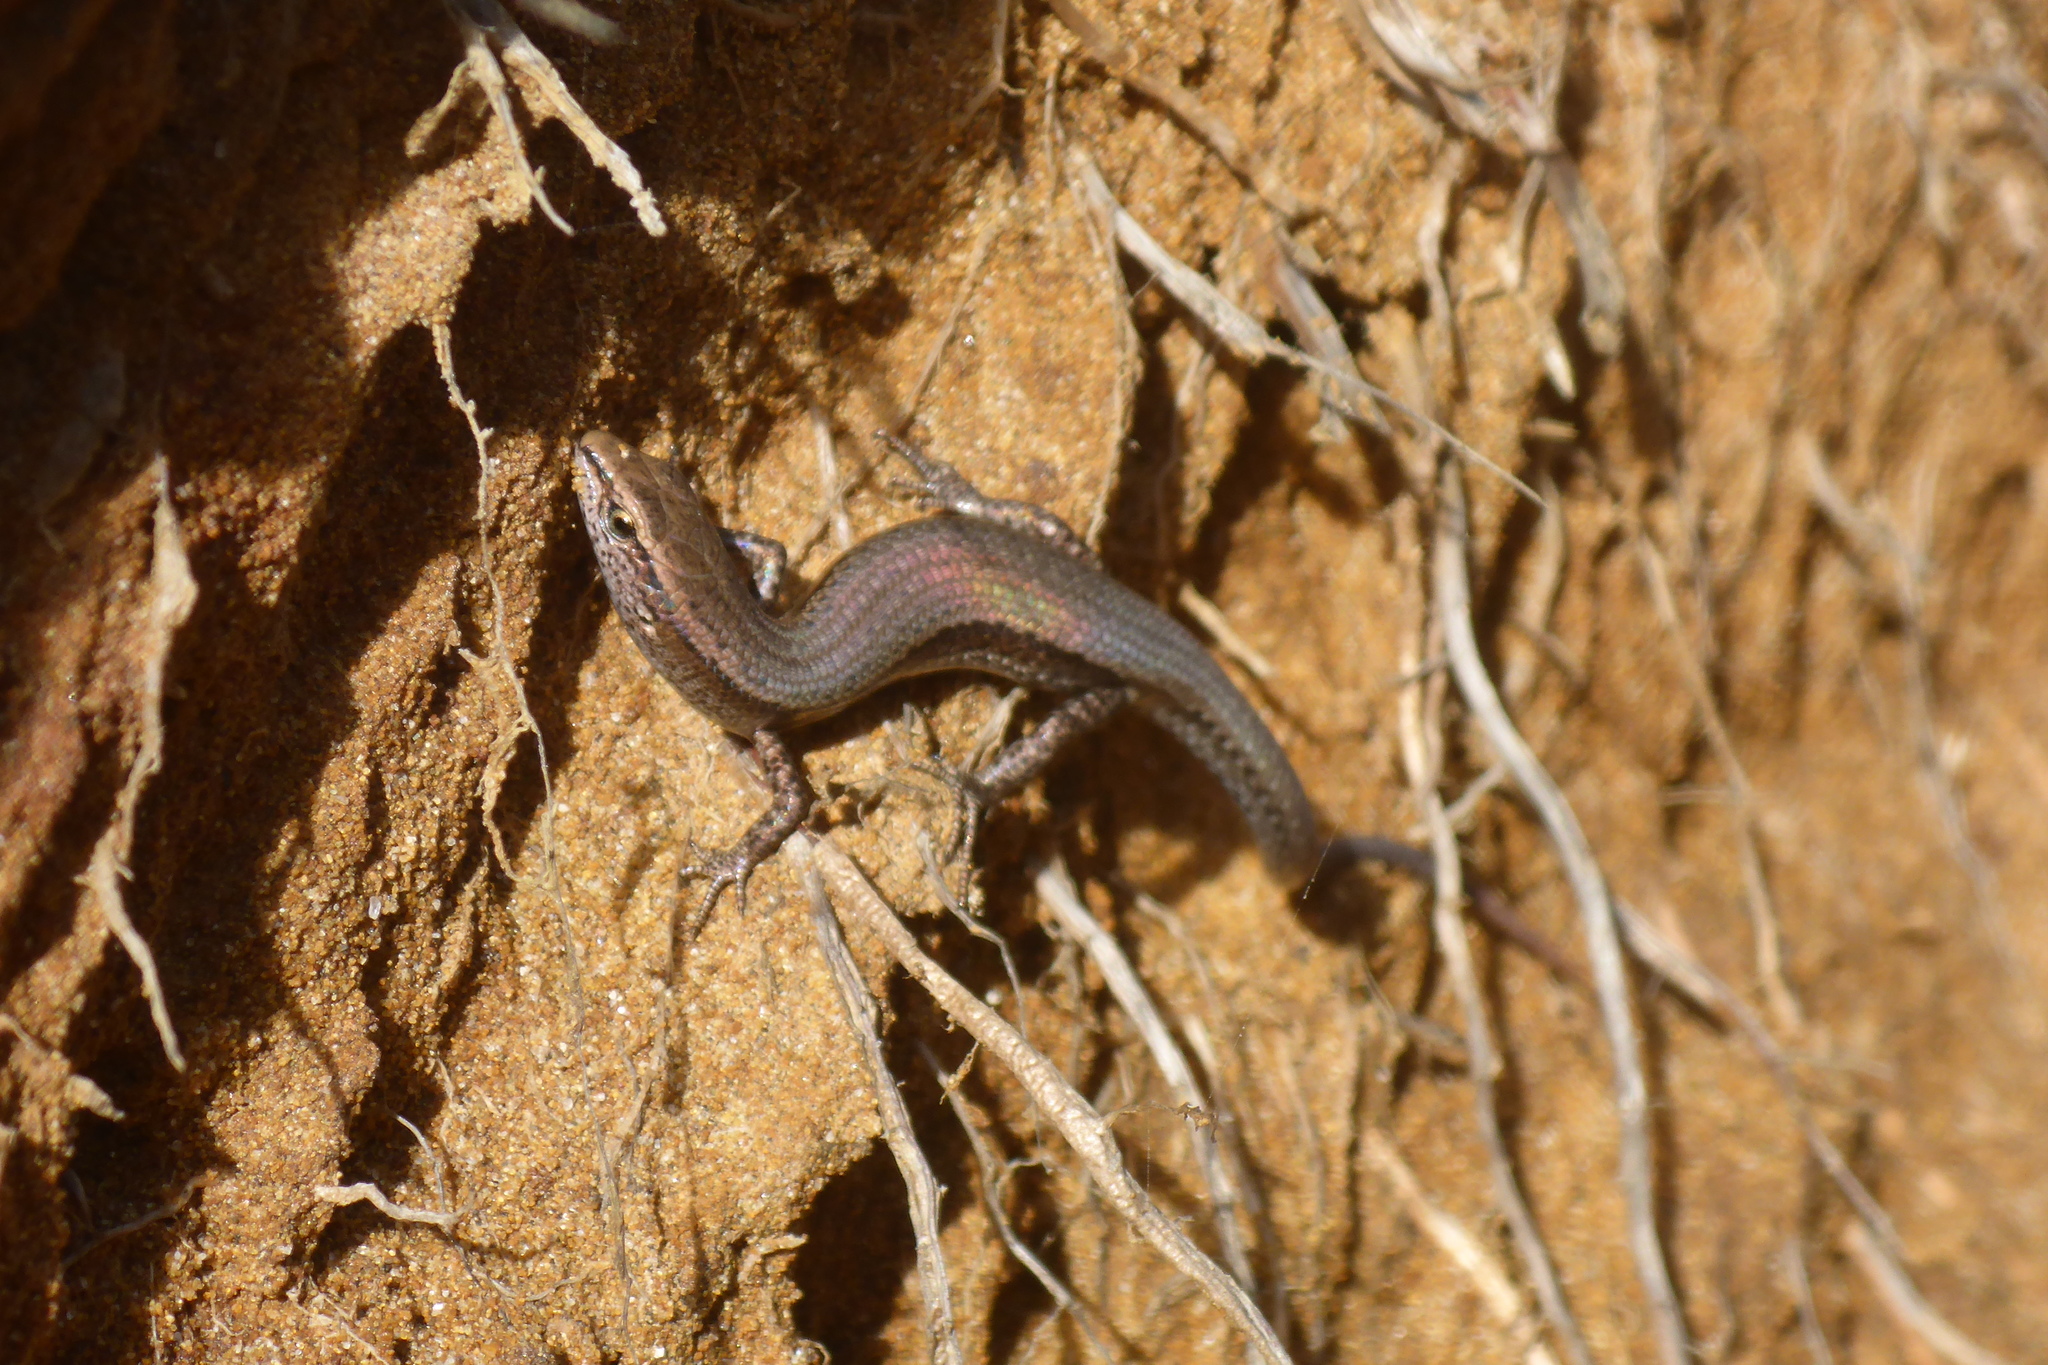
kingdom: Animalia
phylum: Chordata
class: Squamata
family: Scincidae
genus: Lampropholis
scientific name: Lampropholis delicata
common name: Plague skink
